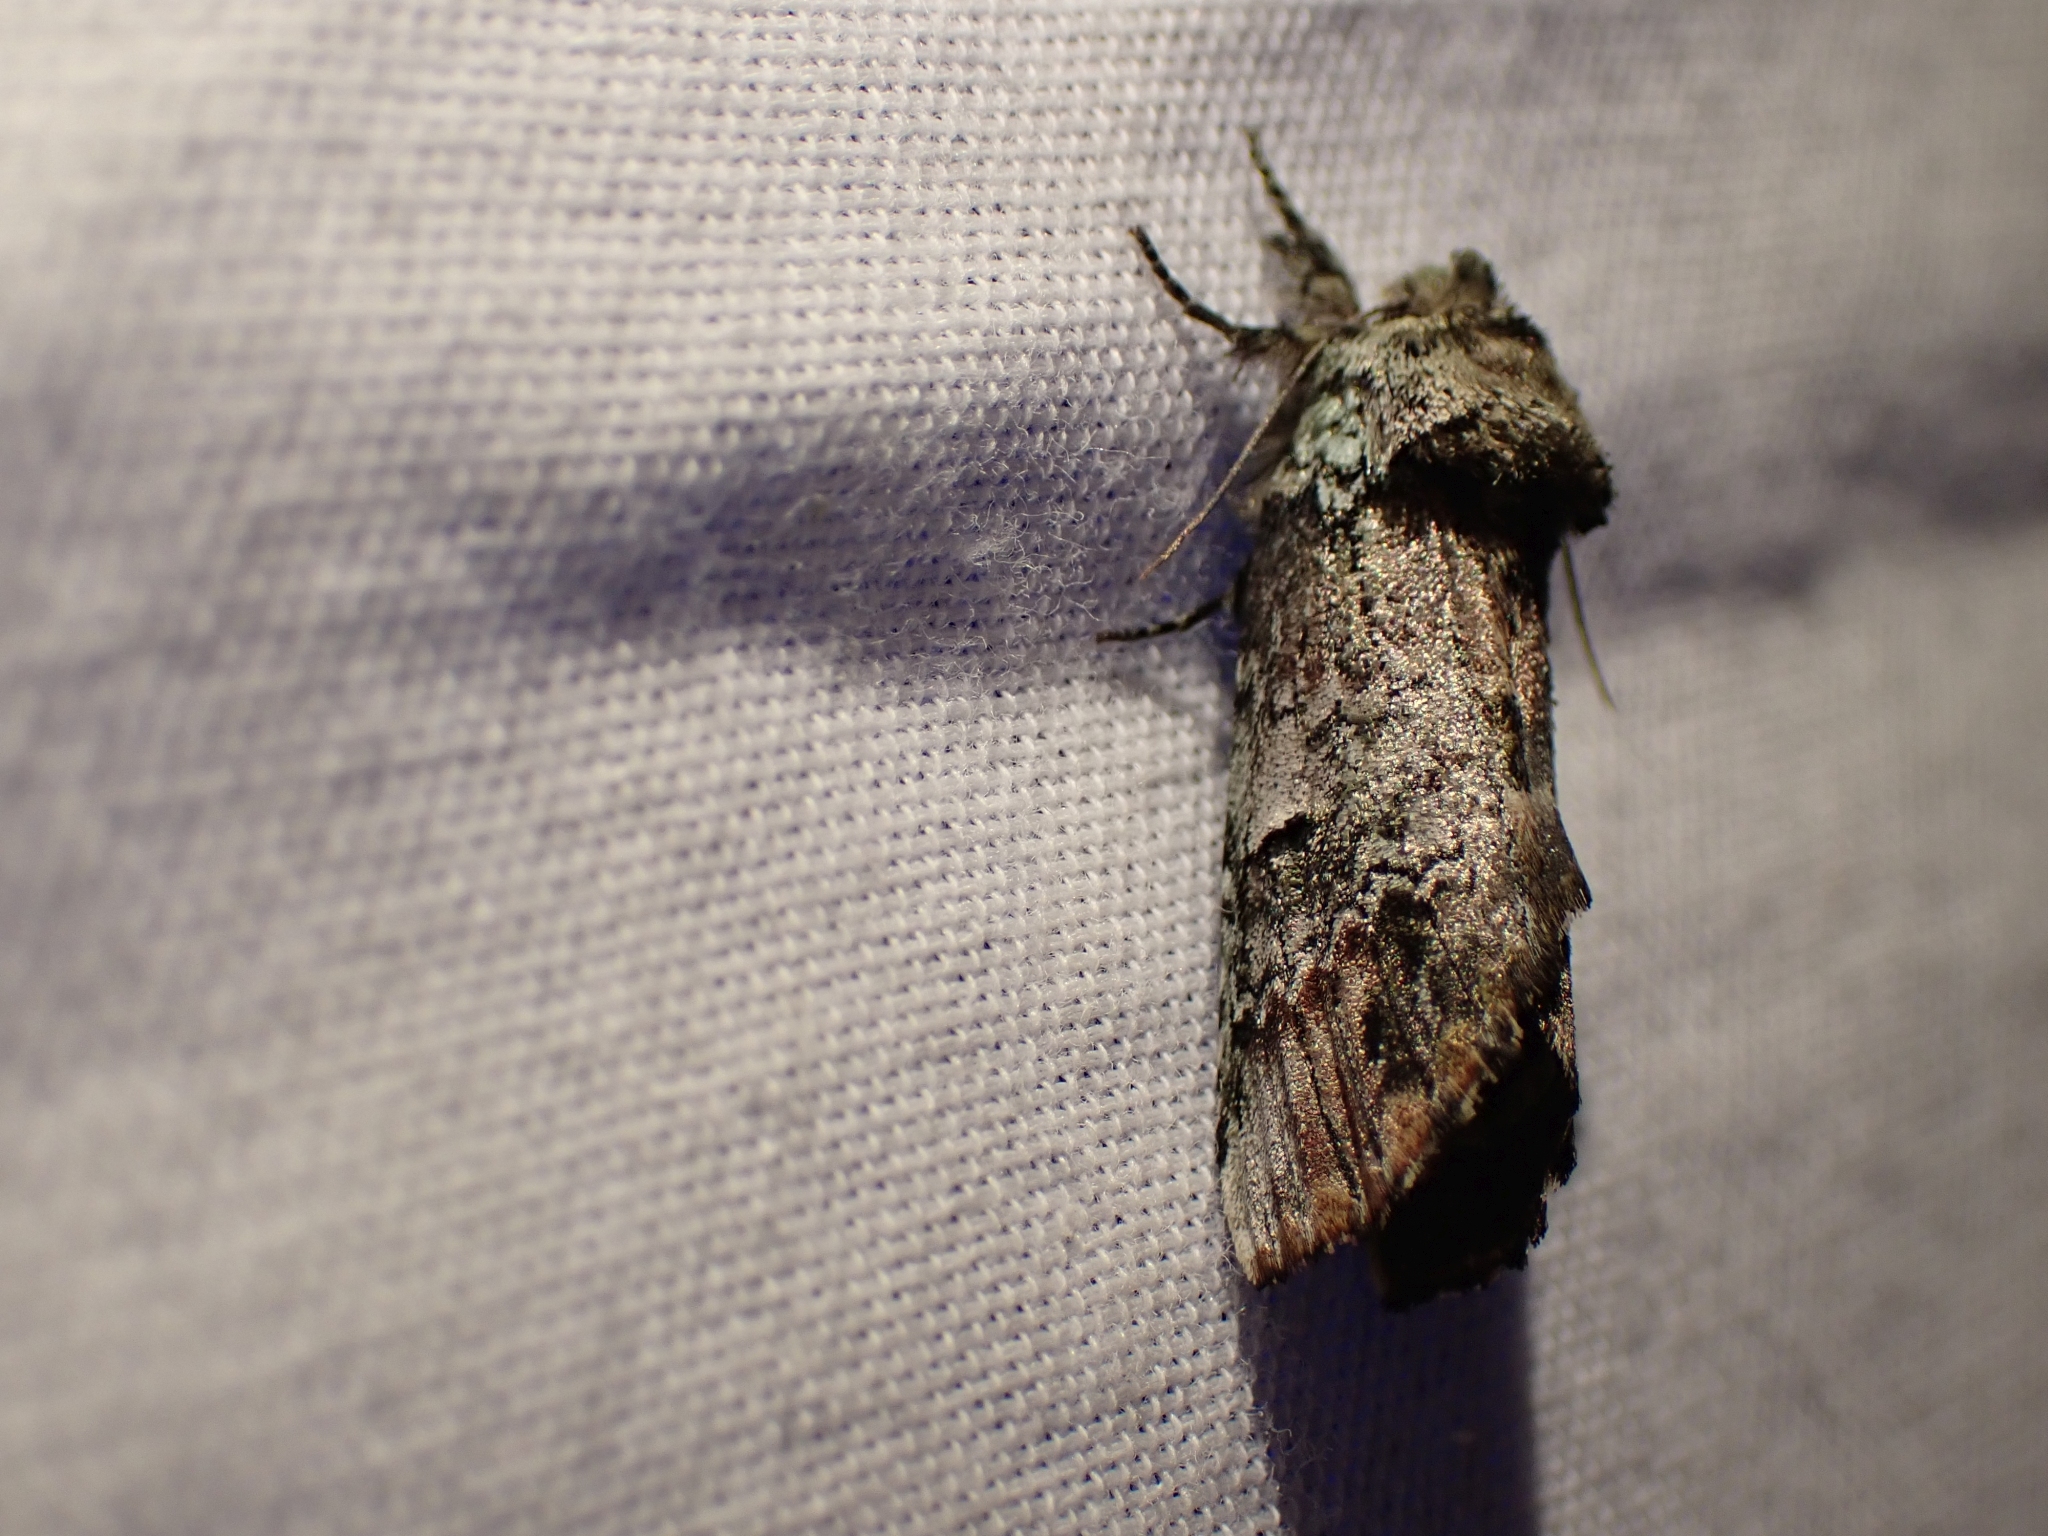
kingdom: Animalia
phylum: Arthropoda
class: Insecta
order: Lepidoptera
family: Notodontidae
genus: Schizura
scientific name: Schizura
